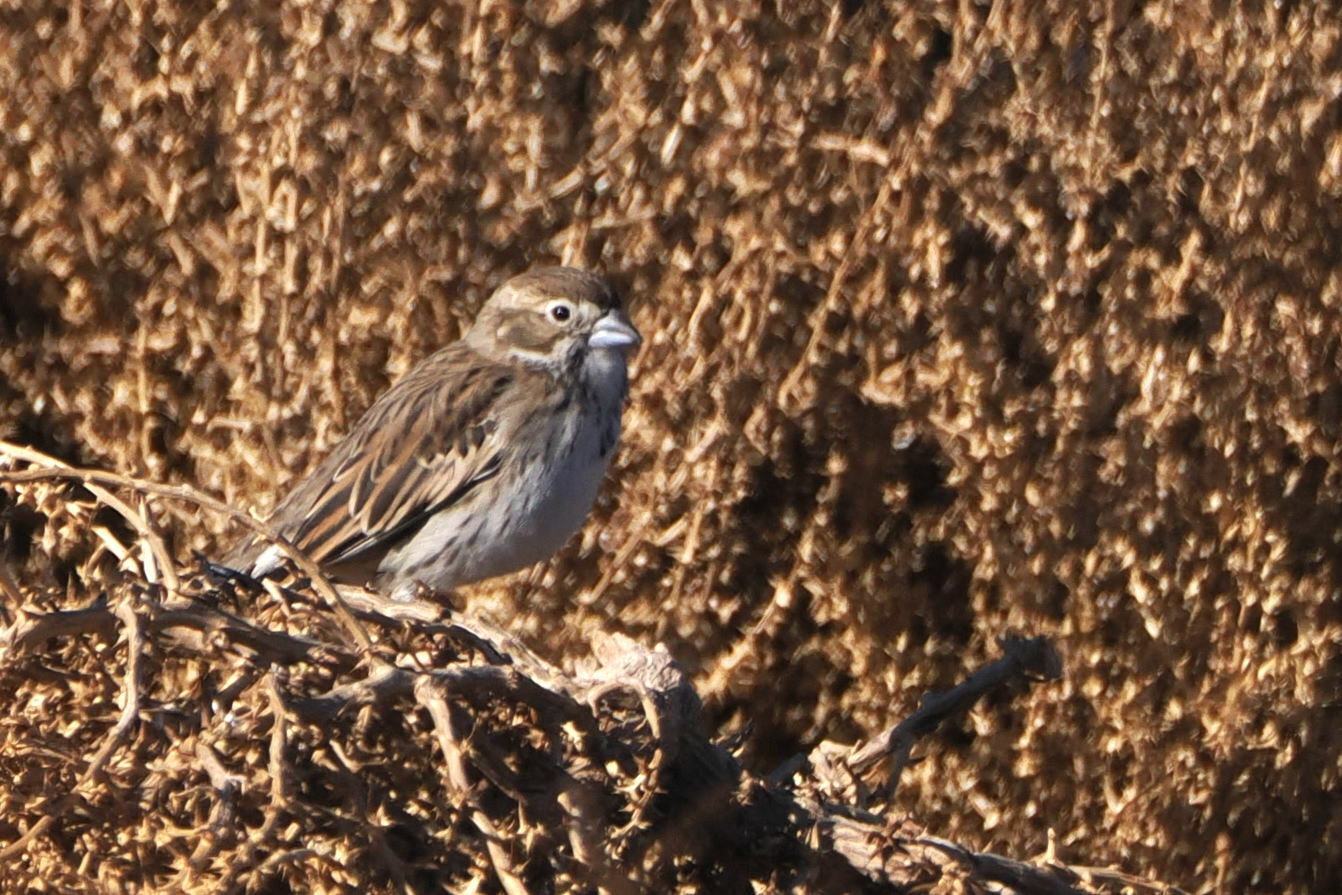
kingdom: Animalia
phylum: Chordata
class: Aves
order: Passeriformes
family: Passerellidae
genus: Calamospiza
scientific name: Calamospiza melanocorys
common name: Lark bunting
